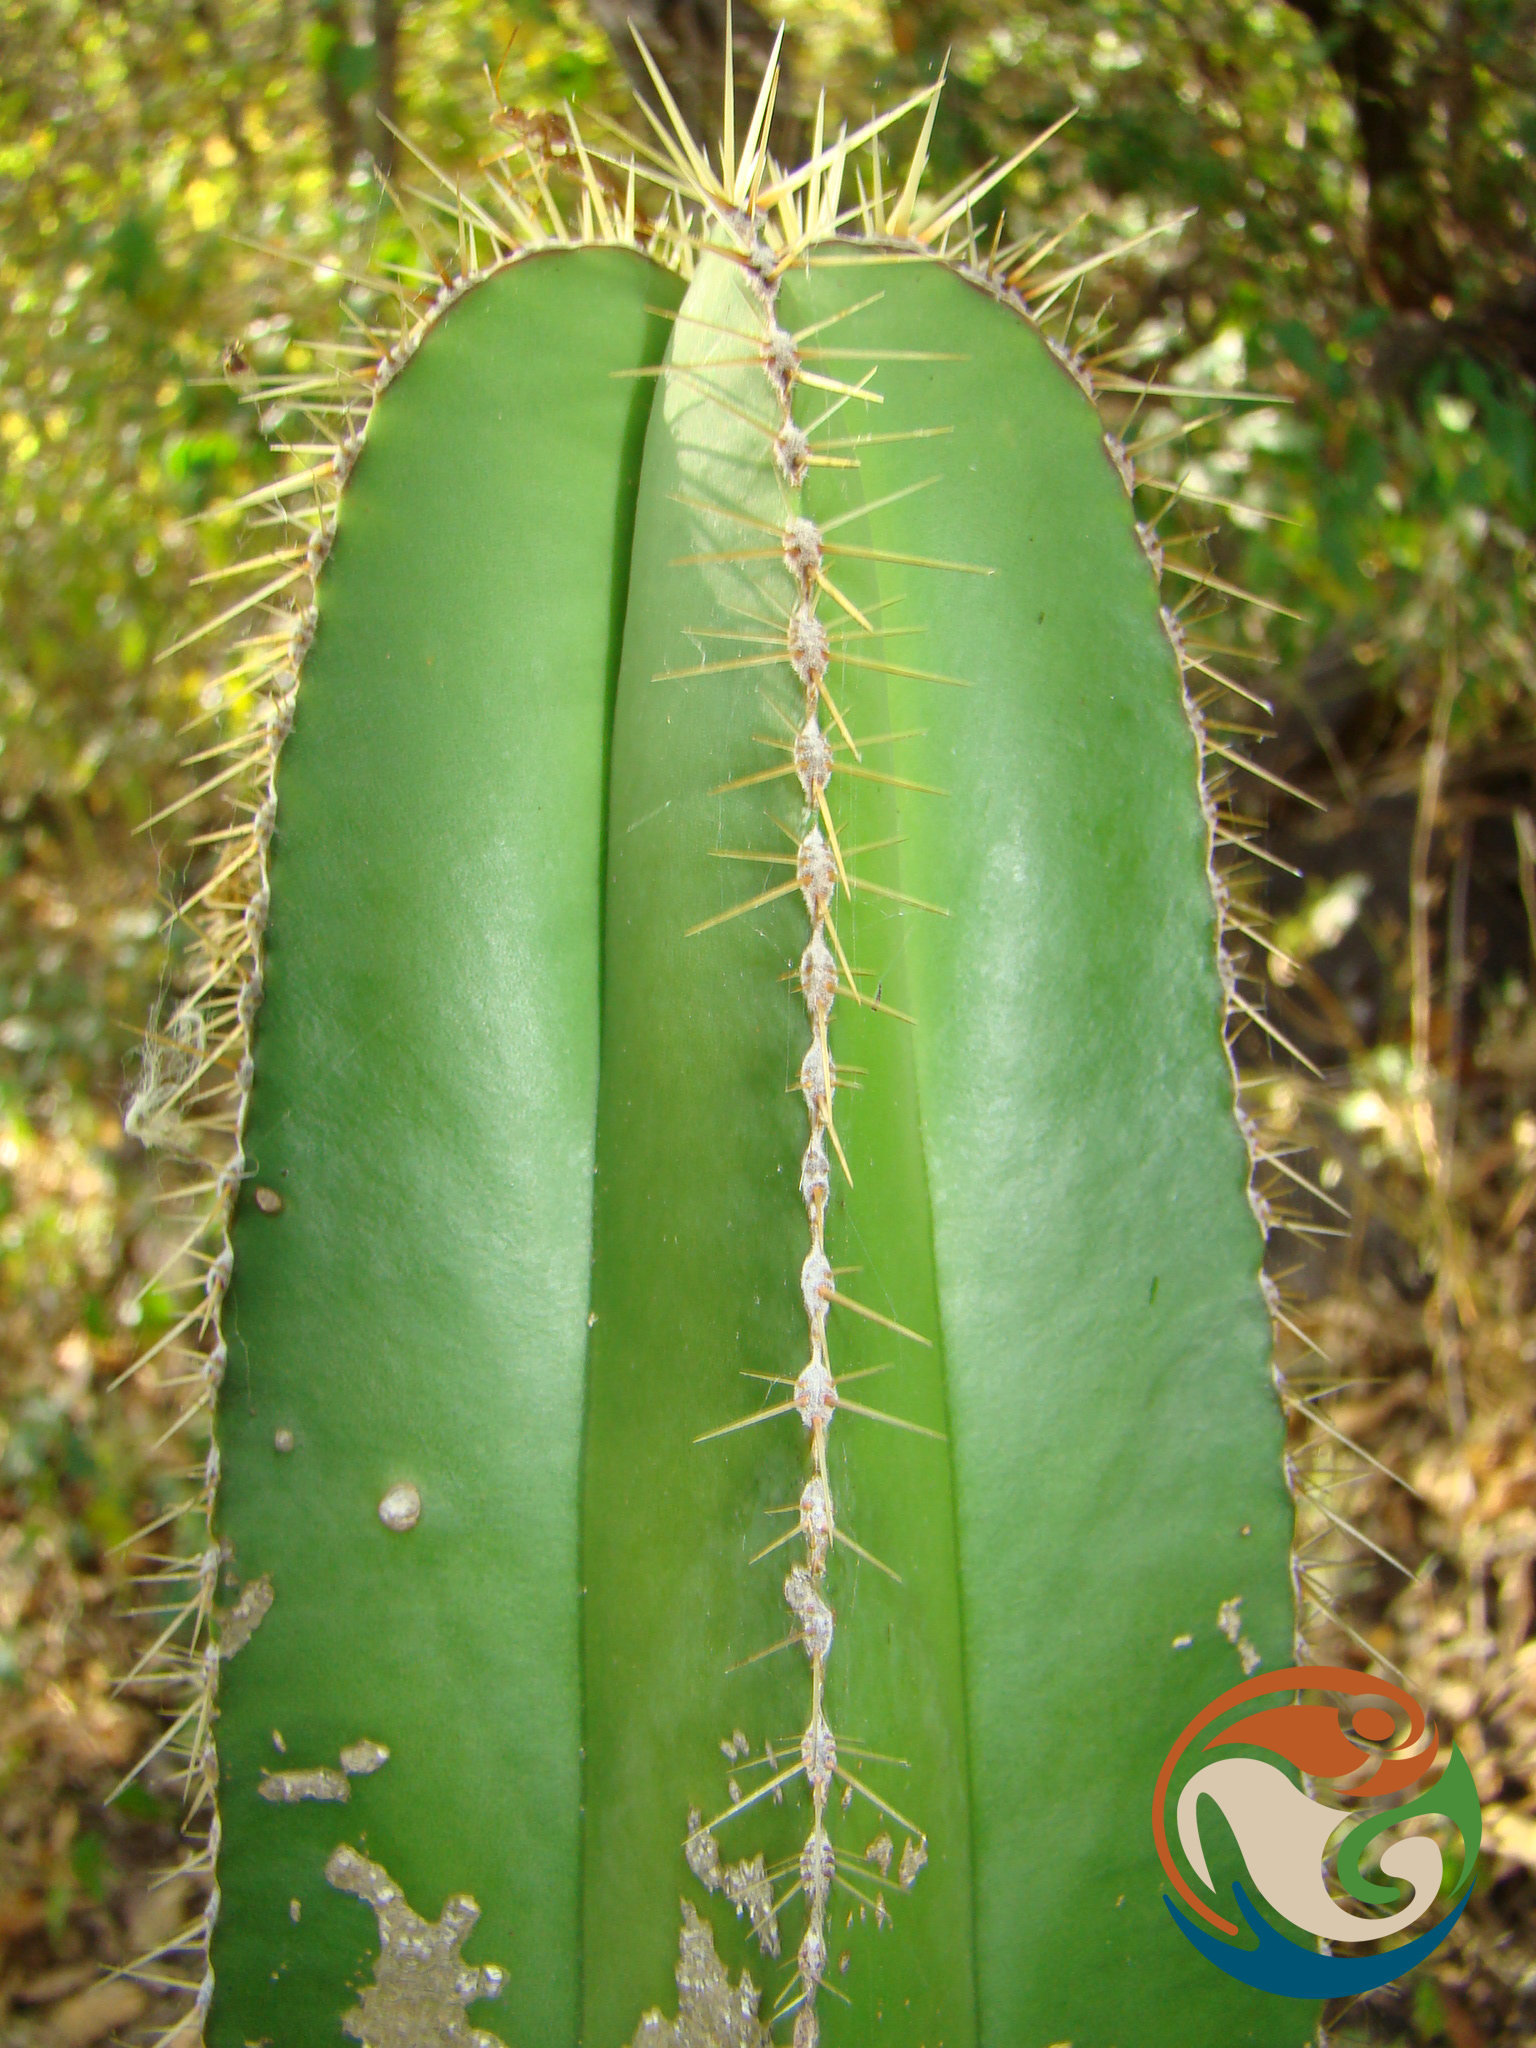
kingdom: Plantae
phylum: Tracheophyta
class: Magnoliopsida
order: Caryophyllales
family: Cactaceae
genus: Stenocereus
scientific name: Stenocereus dumortieri
